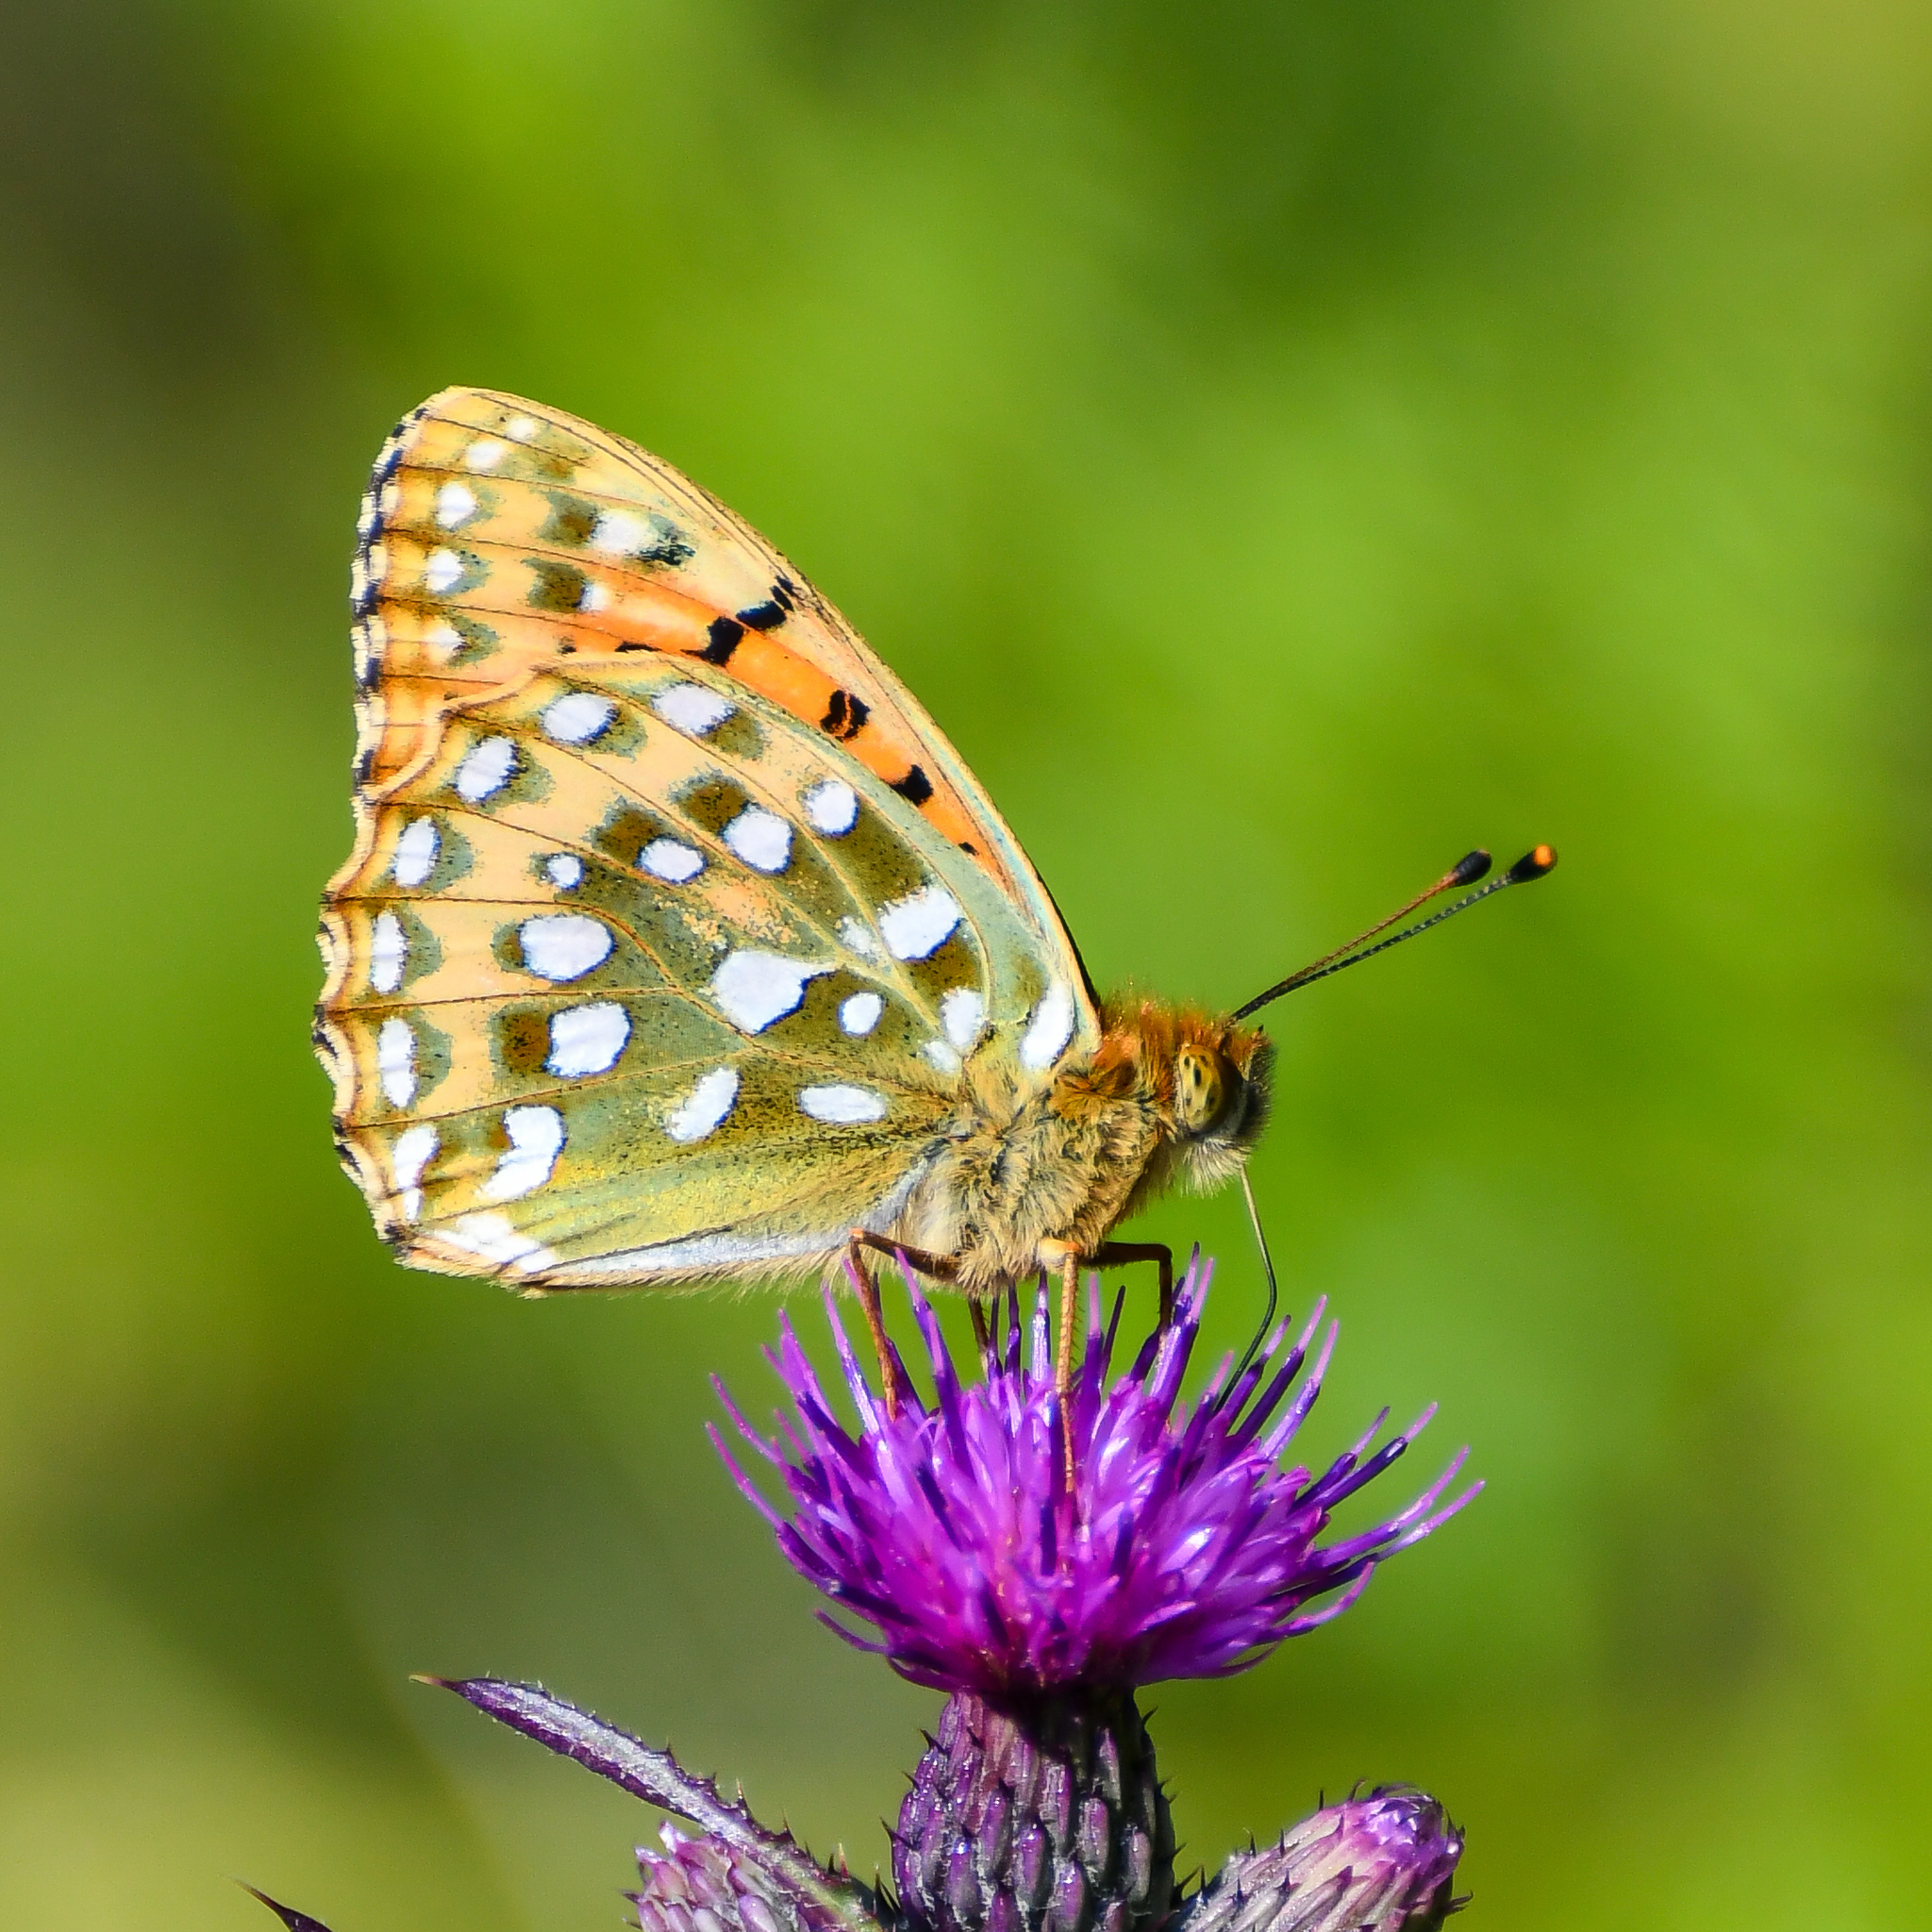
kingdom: Animalia
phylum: Arthropoda
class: Insecta
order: Lepidoptera
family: Nymphalidae
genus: Speyeria
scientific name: Speyeria aglaja
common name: Dark green fritillary
